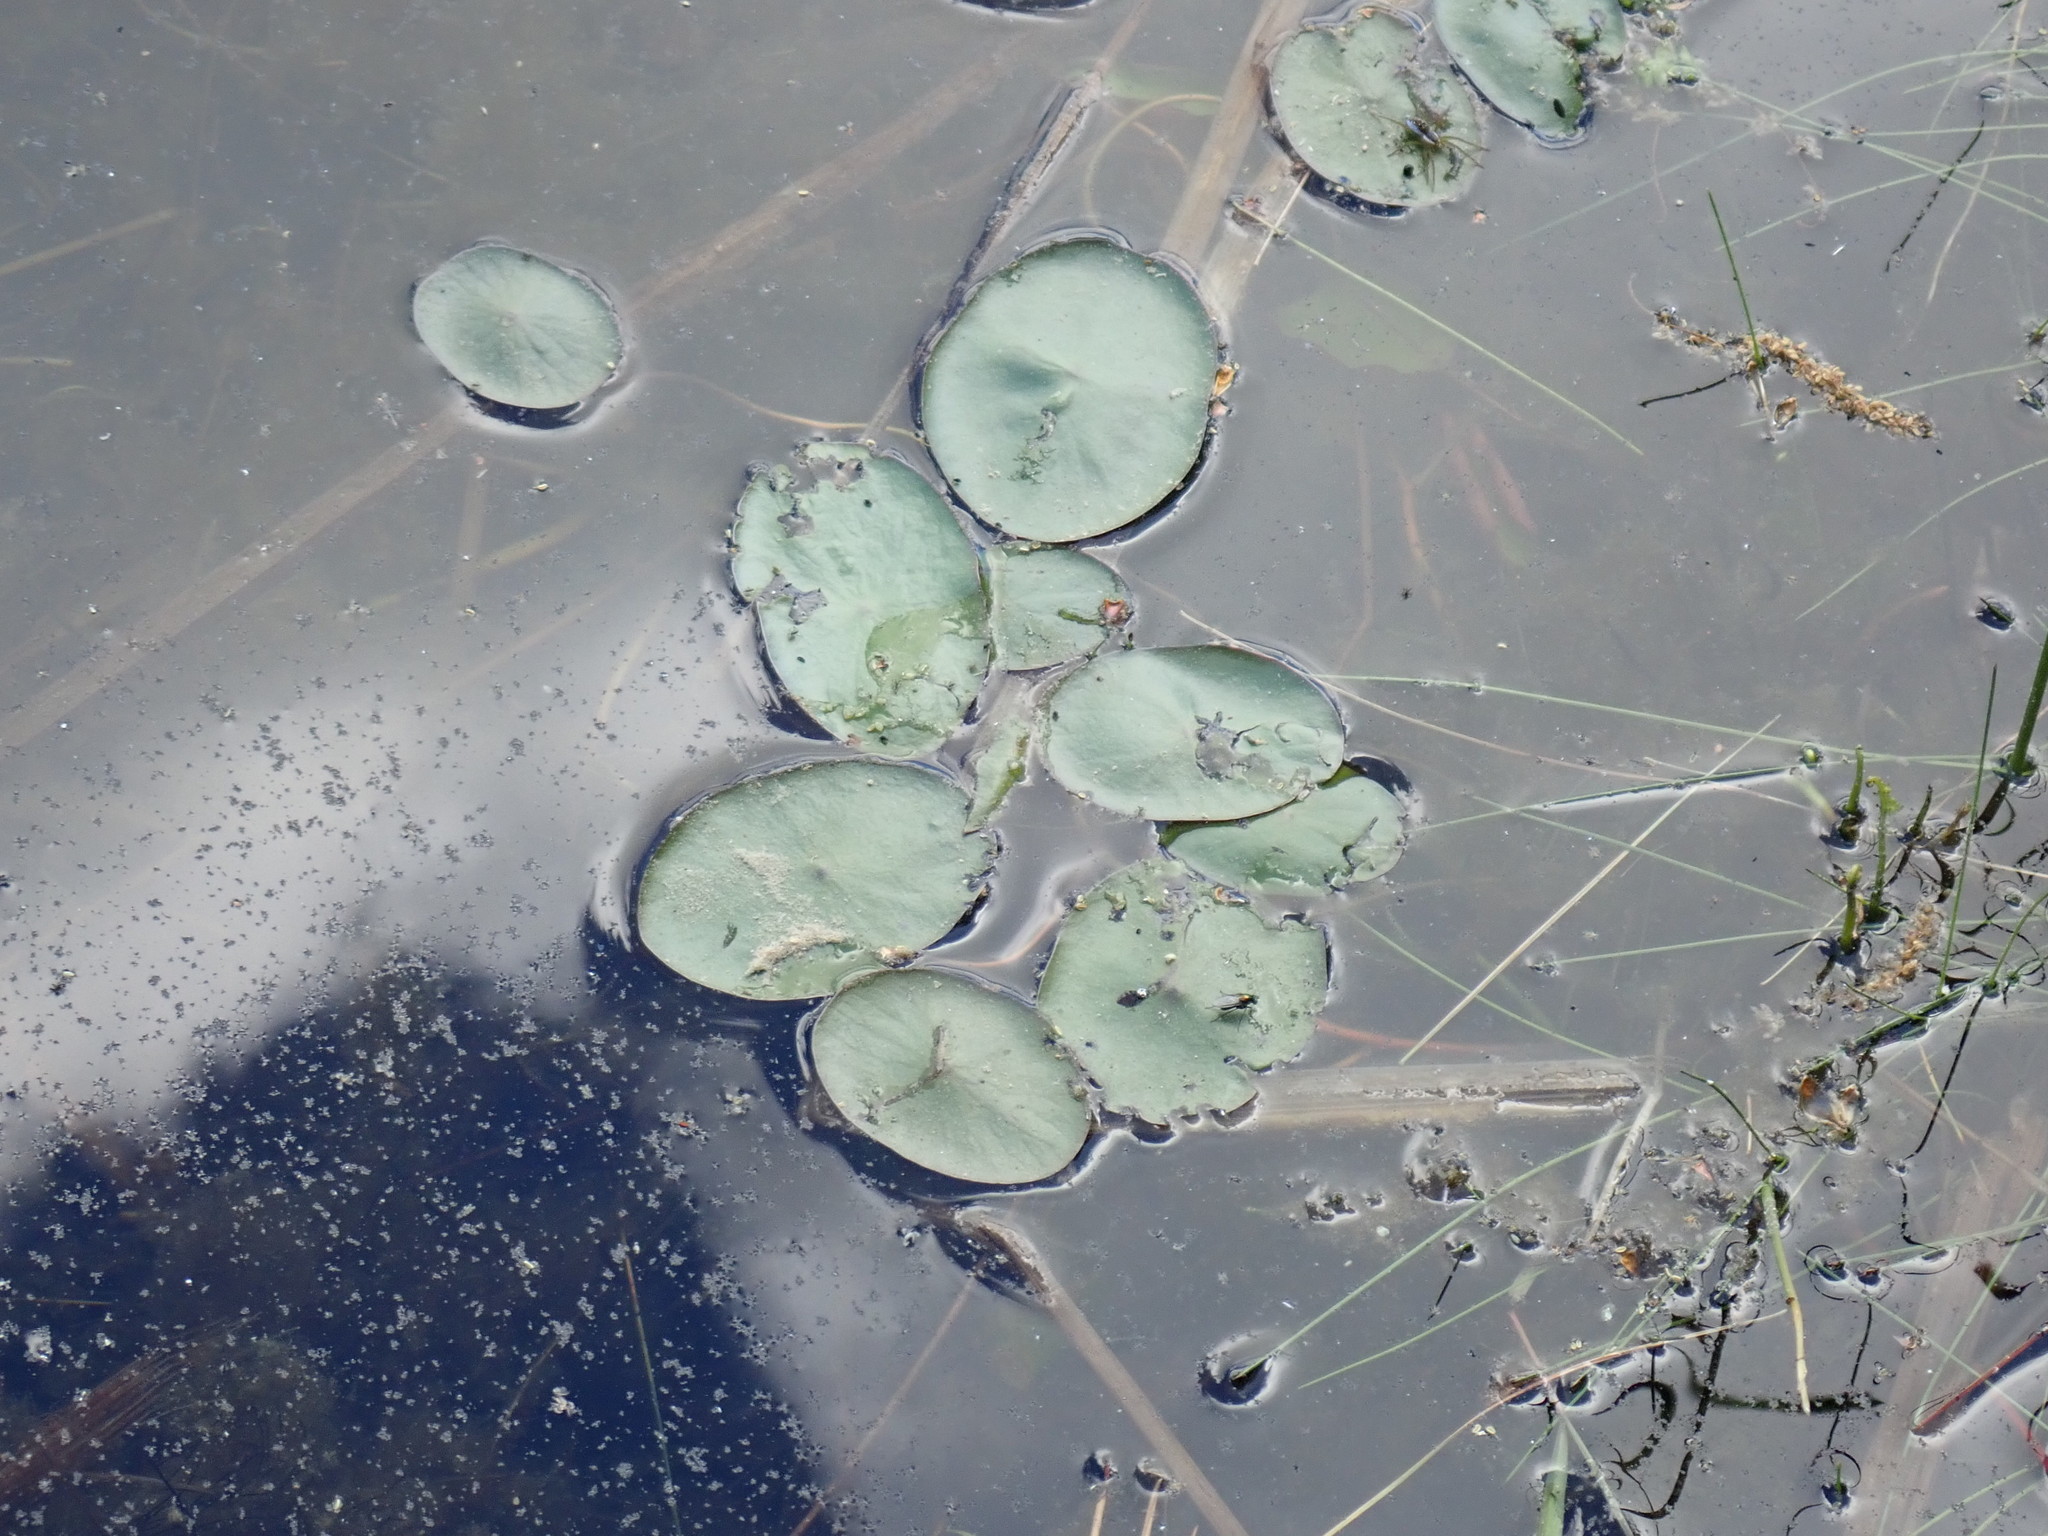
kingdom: Plantae
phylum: Tracheophyta
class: Magnoliopsida
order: Nymphaeales
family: Cabombaceae
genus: Brasenia
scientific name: Brasenia schreberi
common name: Water-shield
